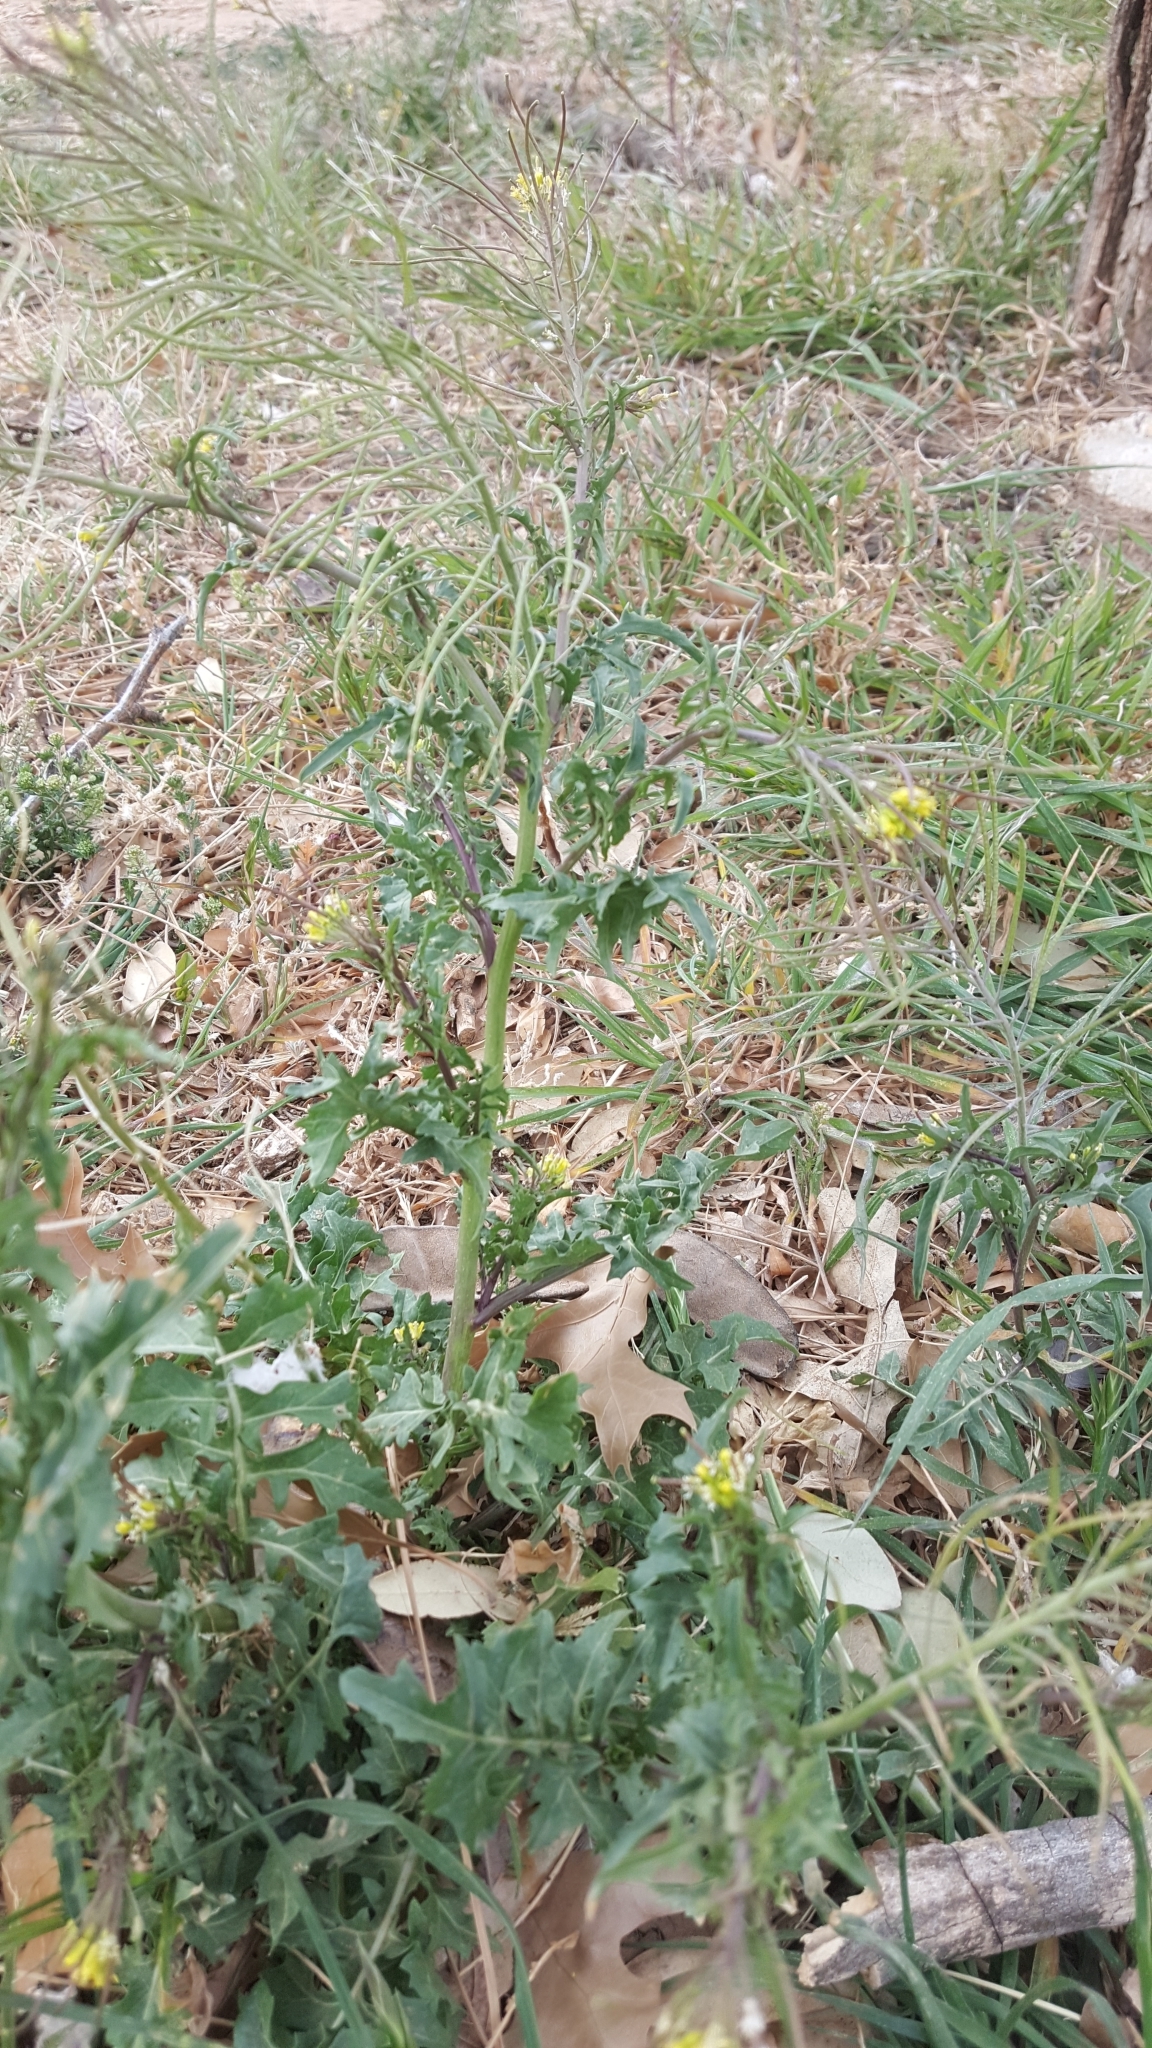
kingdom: Plantae
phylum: Tracheophyta
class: Magnoliopsida
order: Brassicales
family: Brassicaceae
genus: Sisymbrium
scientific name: Sisymbrium irio
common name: London rocket
